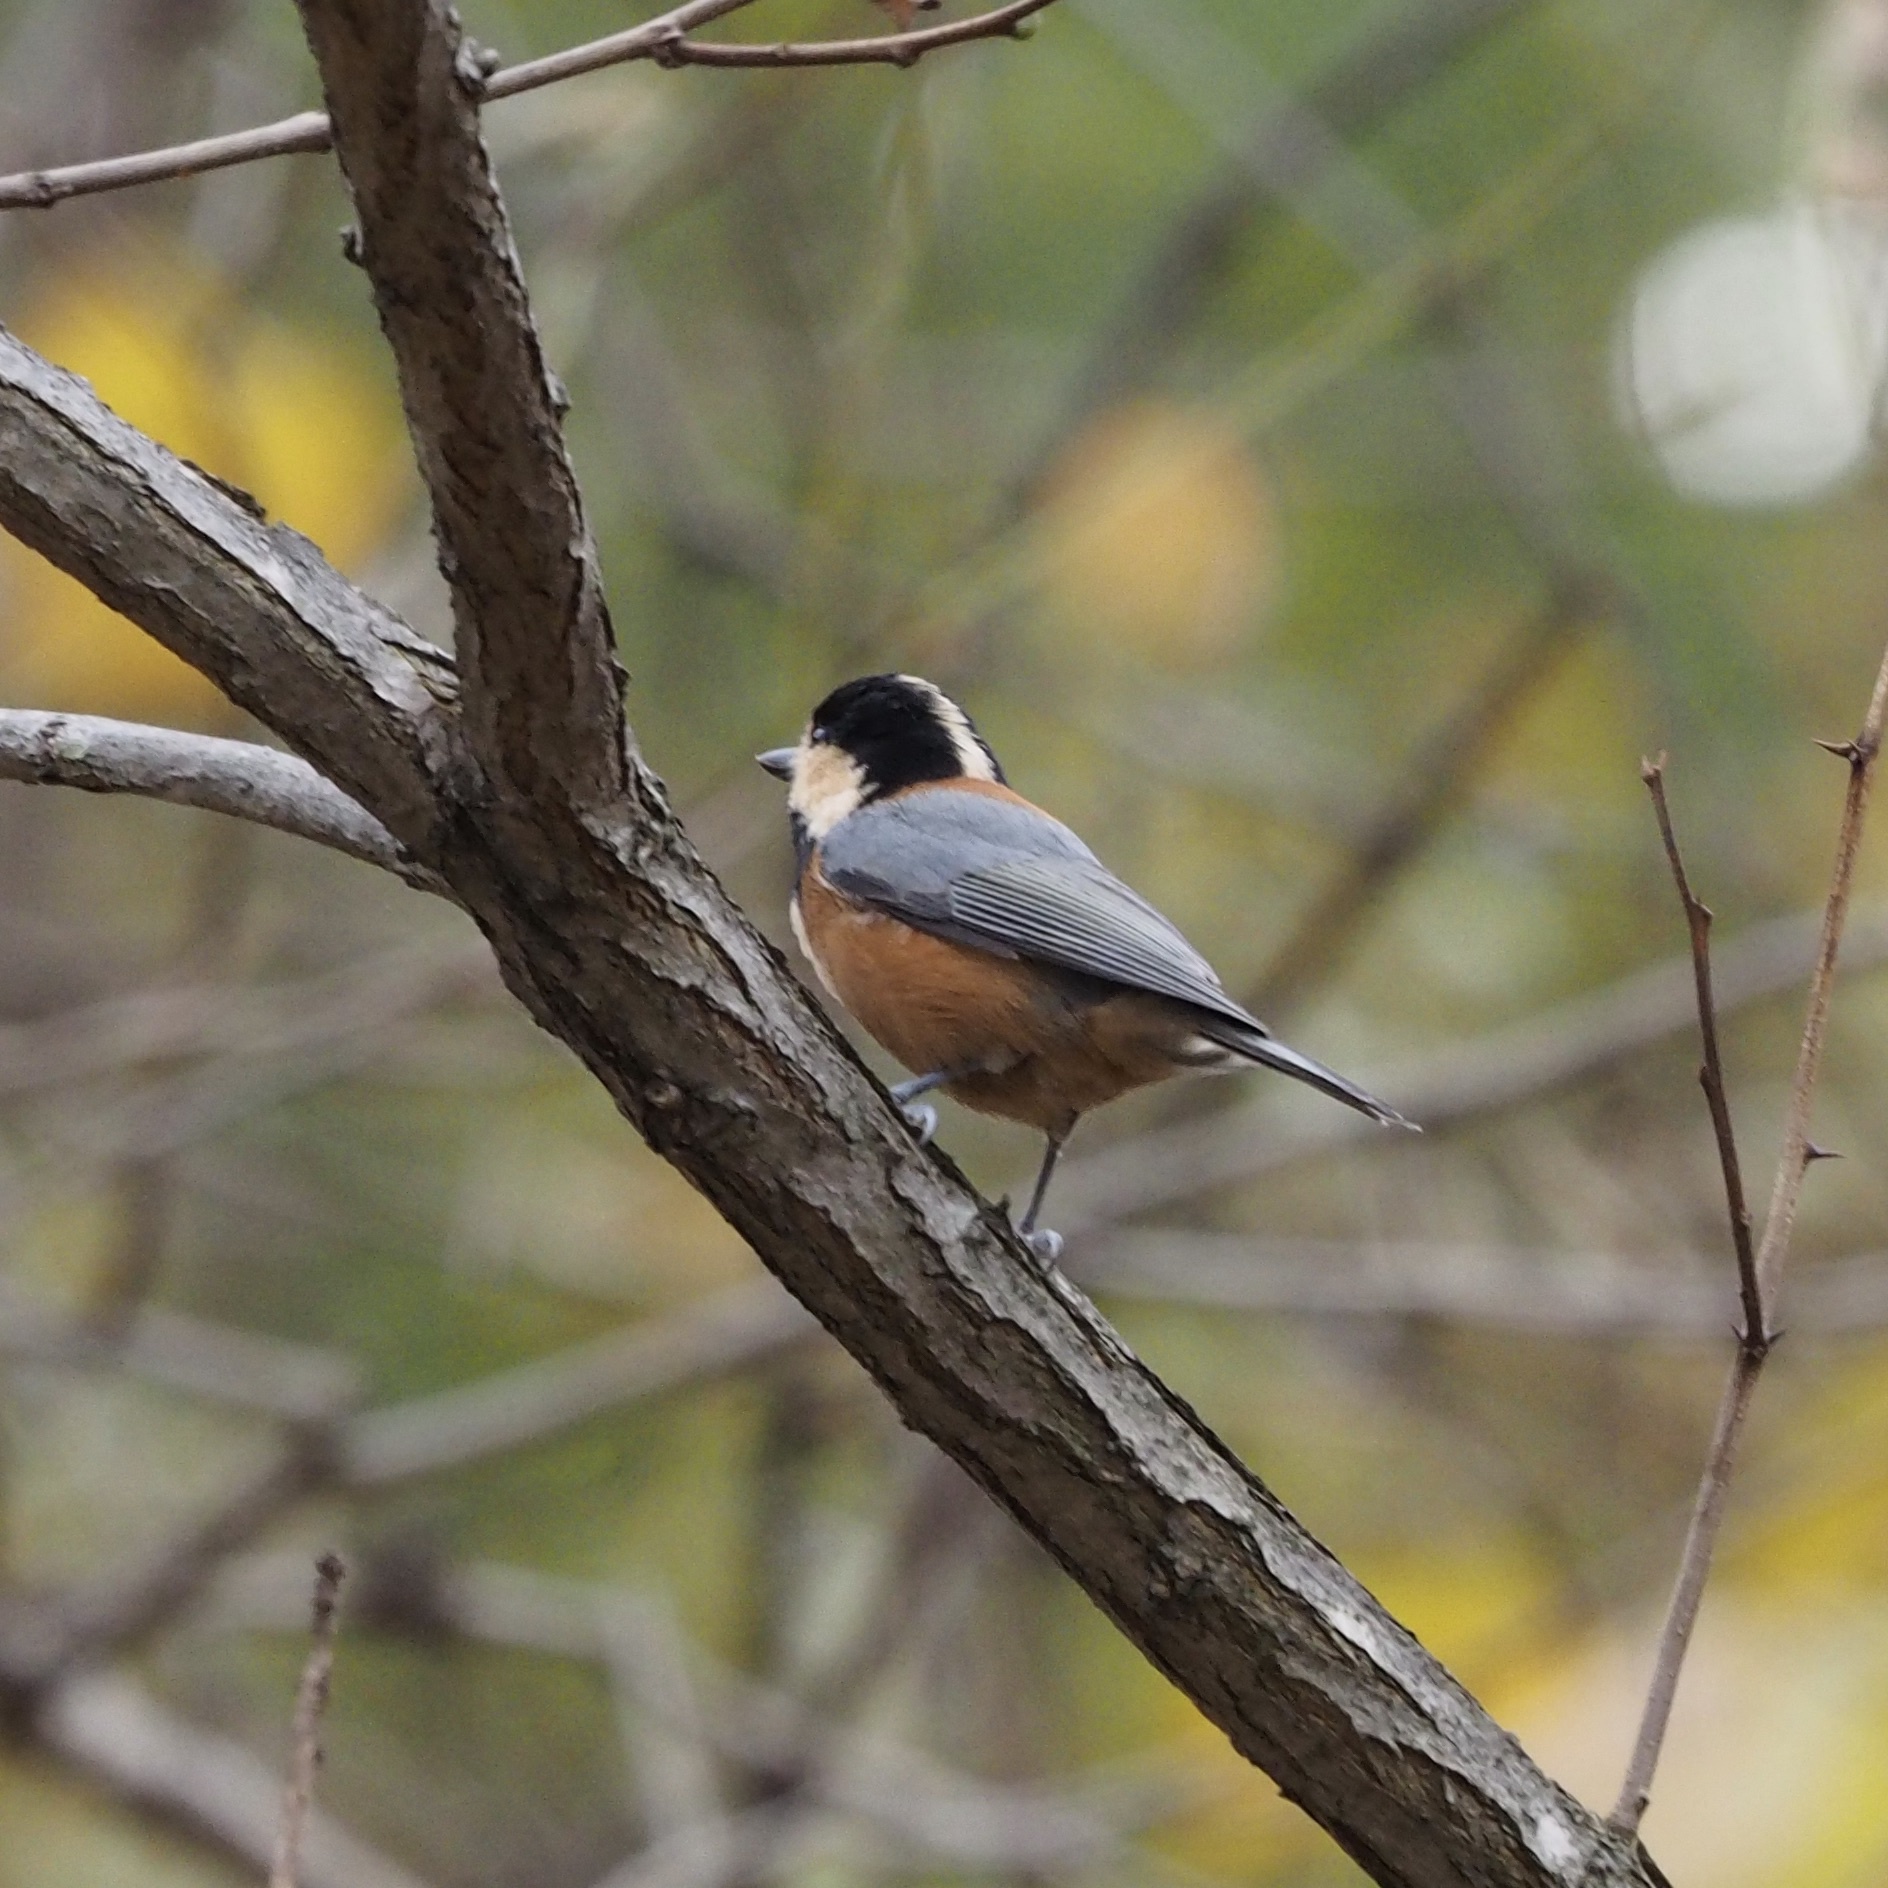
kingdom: Animalia
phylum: Chordata
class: Aves
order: Passeriformes
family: Paridae
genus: Poecile
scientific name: Poecile varius
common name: Varied tit
